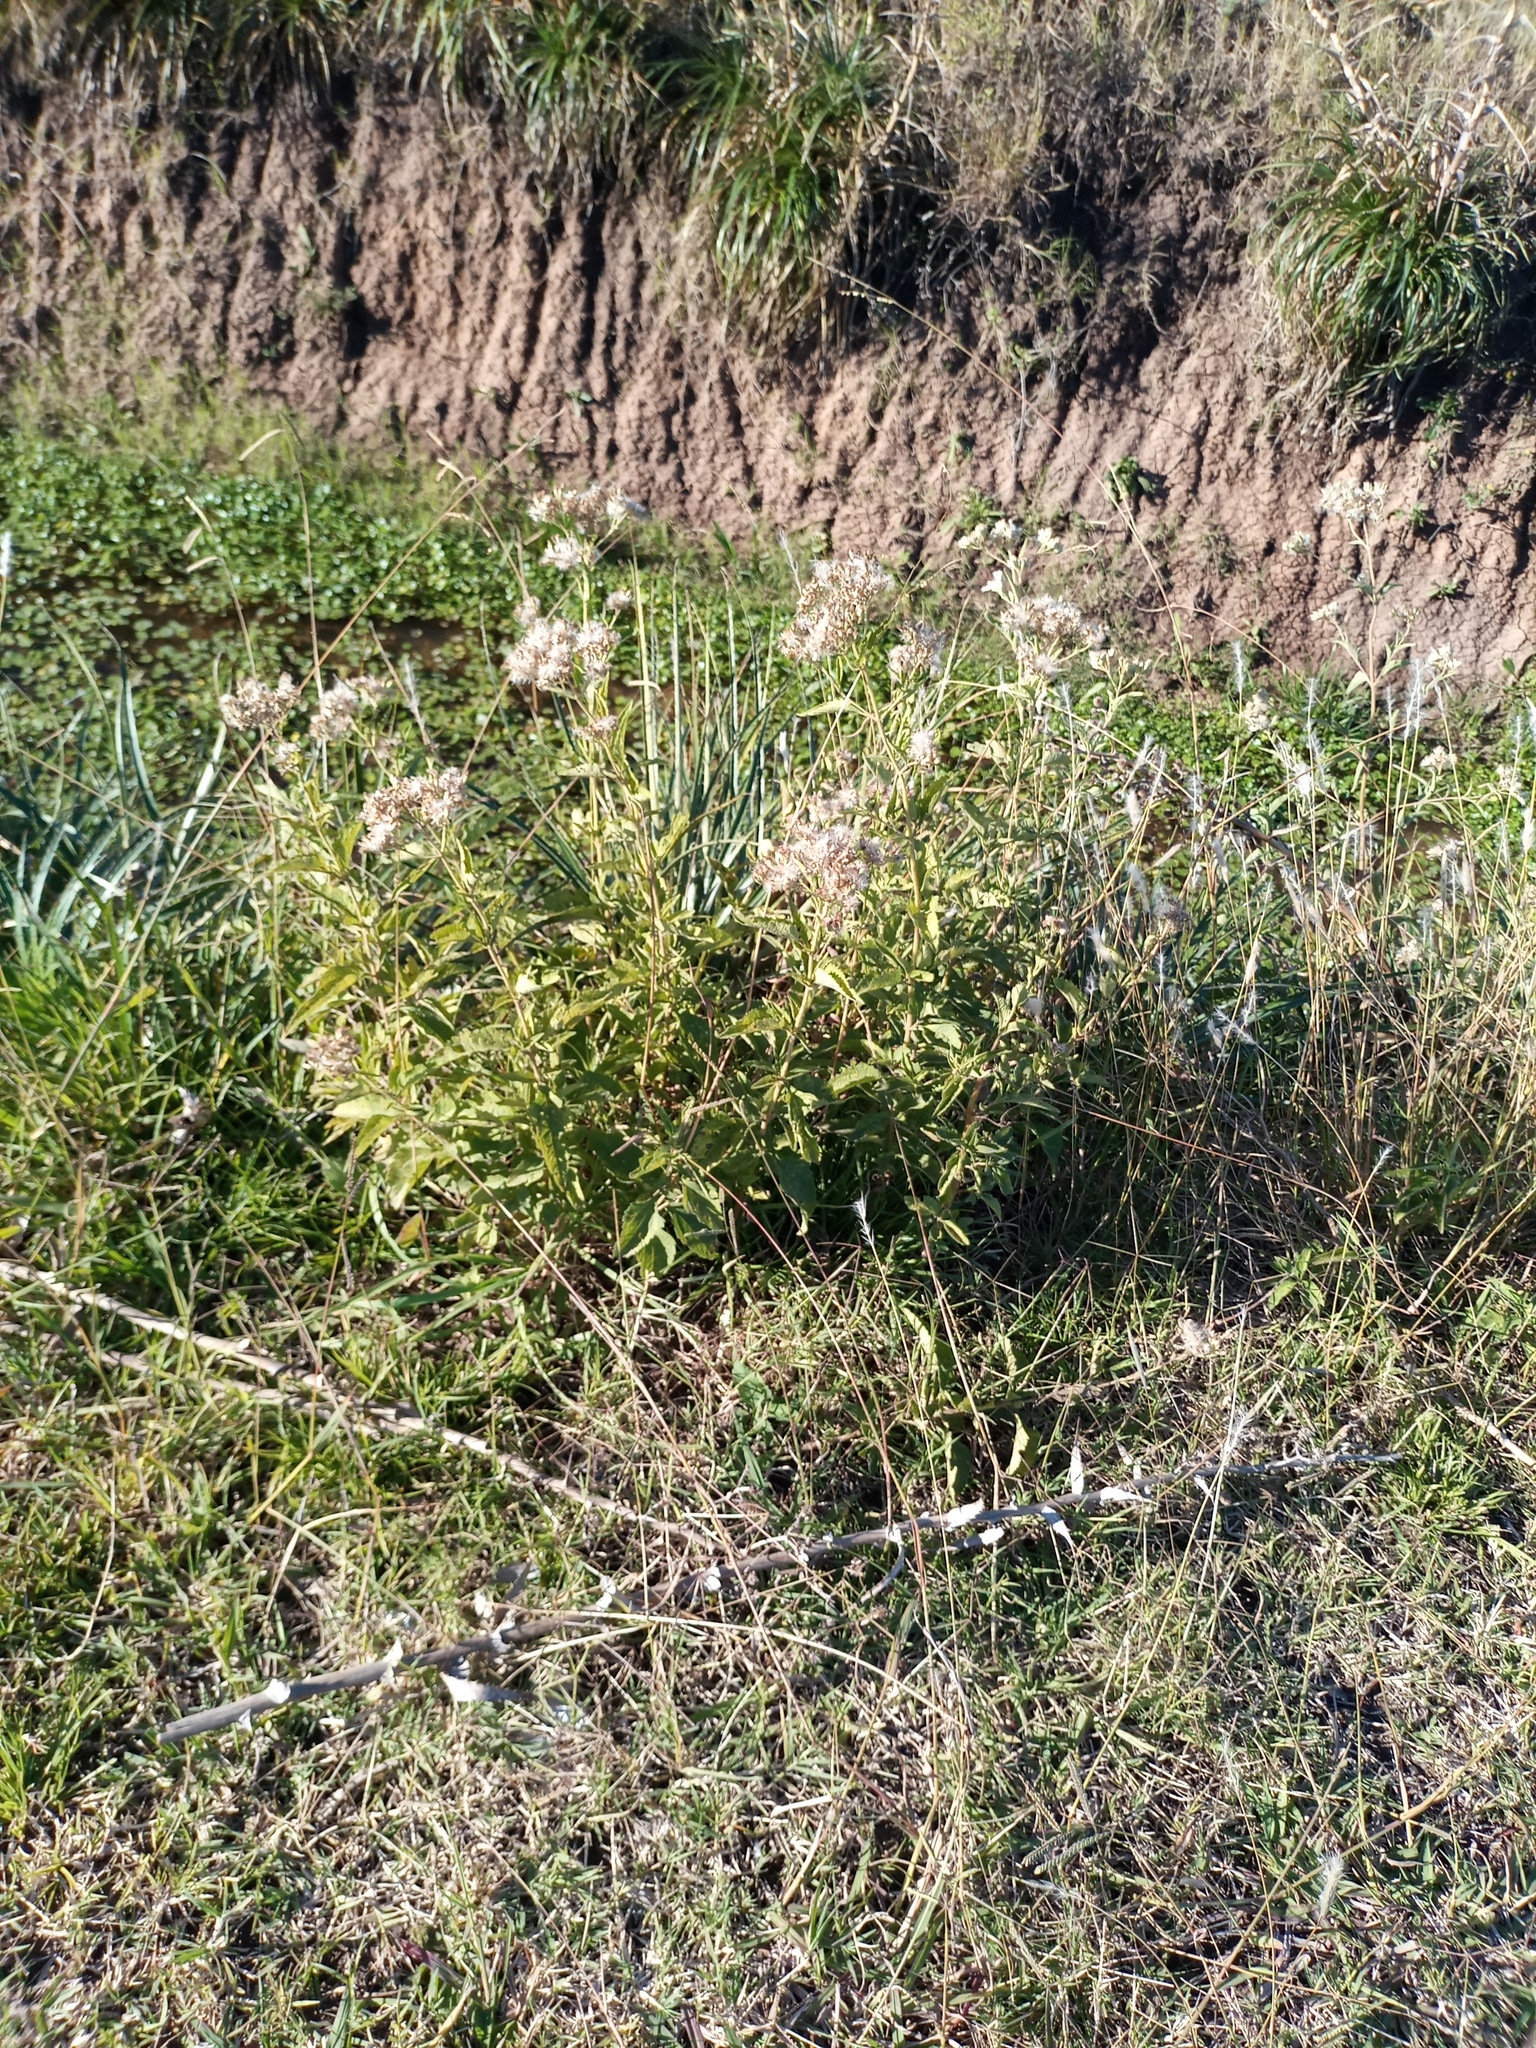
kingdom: Plantae
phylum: Tracheophyta
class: Magnoliopsida
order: Asterales
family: Asteraceae
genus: Austroeupatorium
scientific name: Austroeupatorium inulifolium
